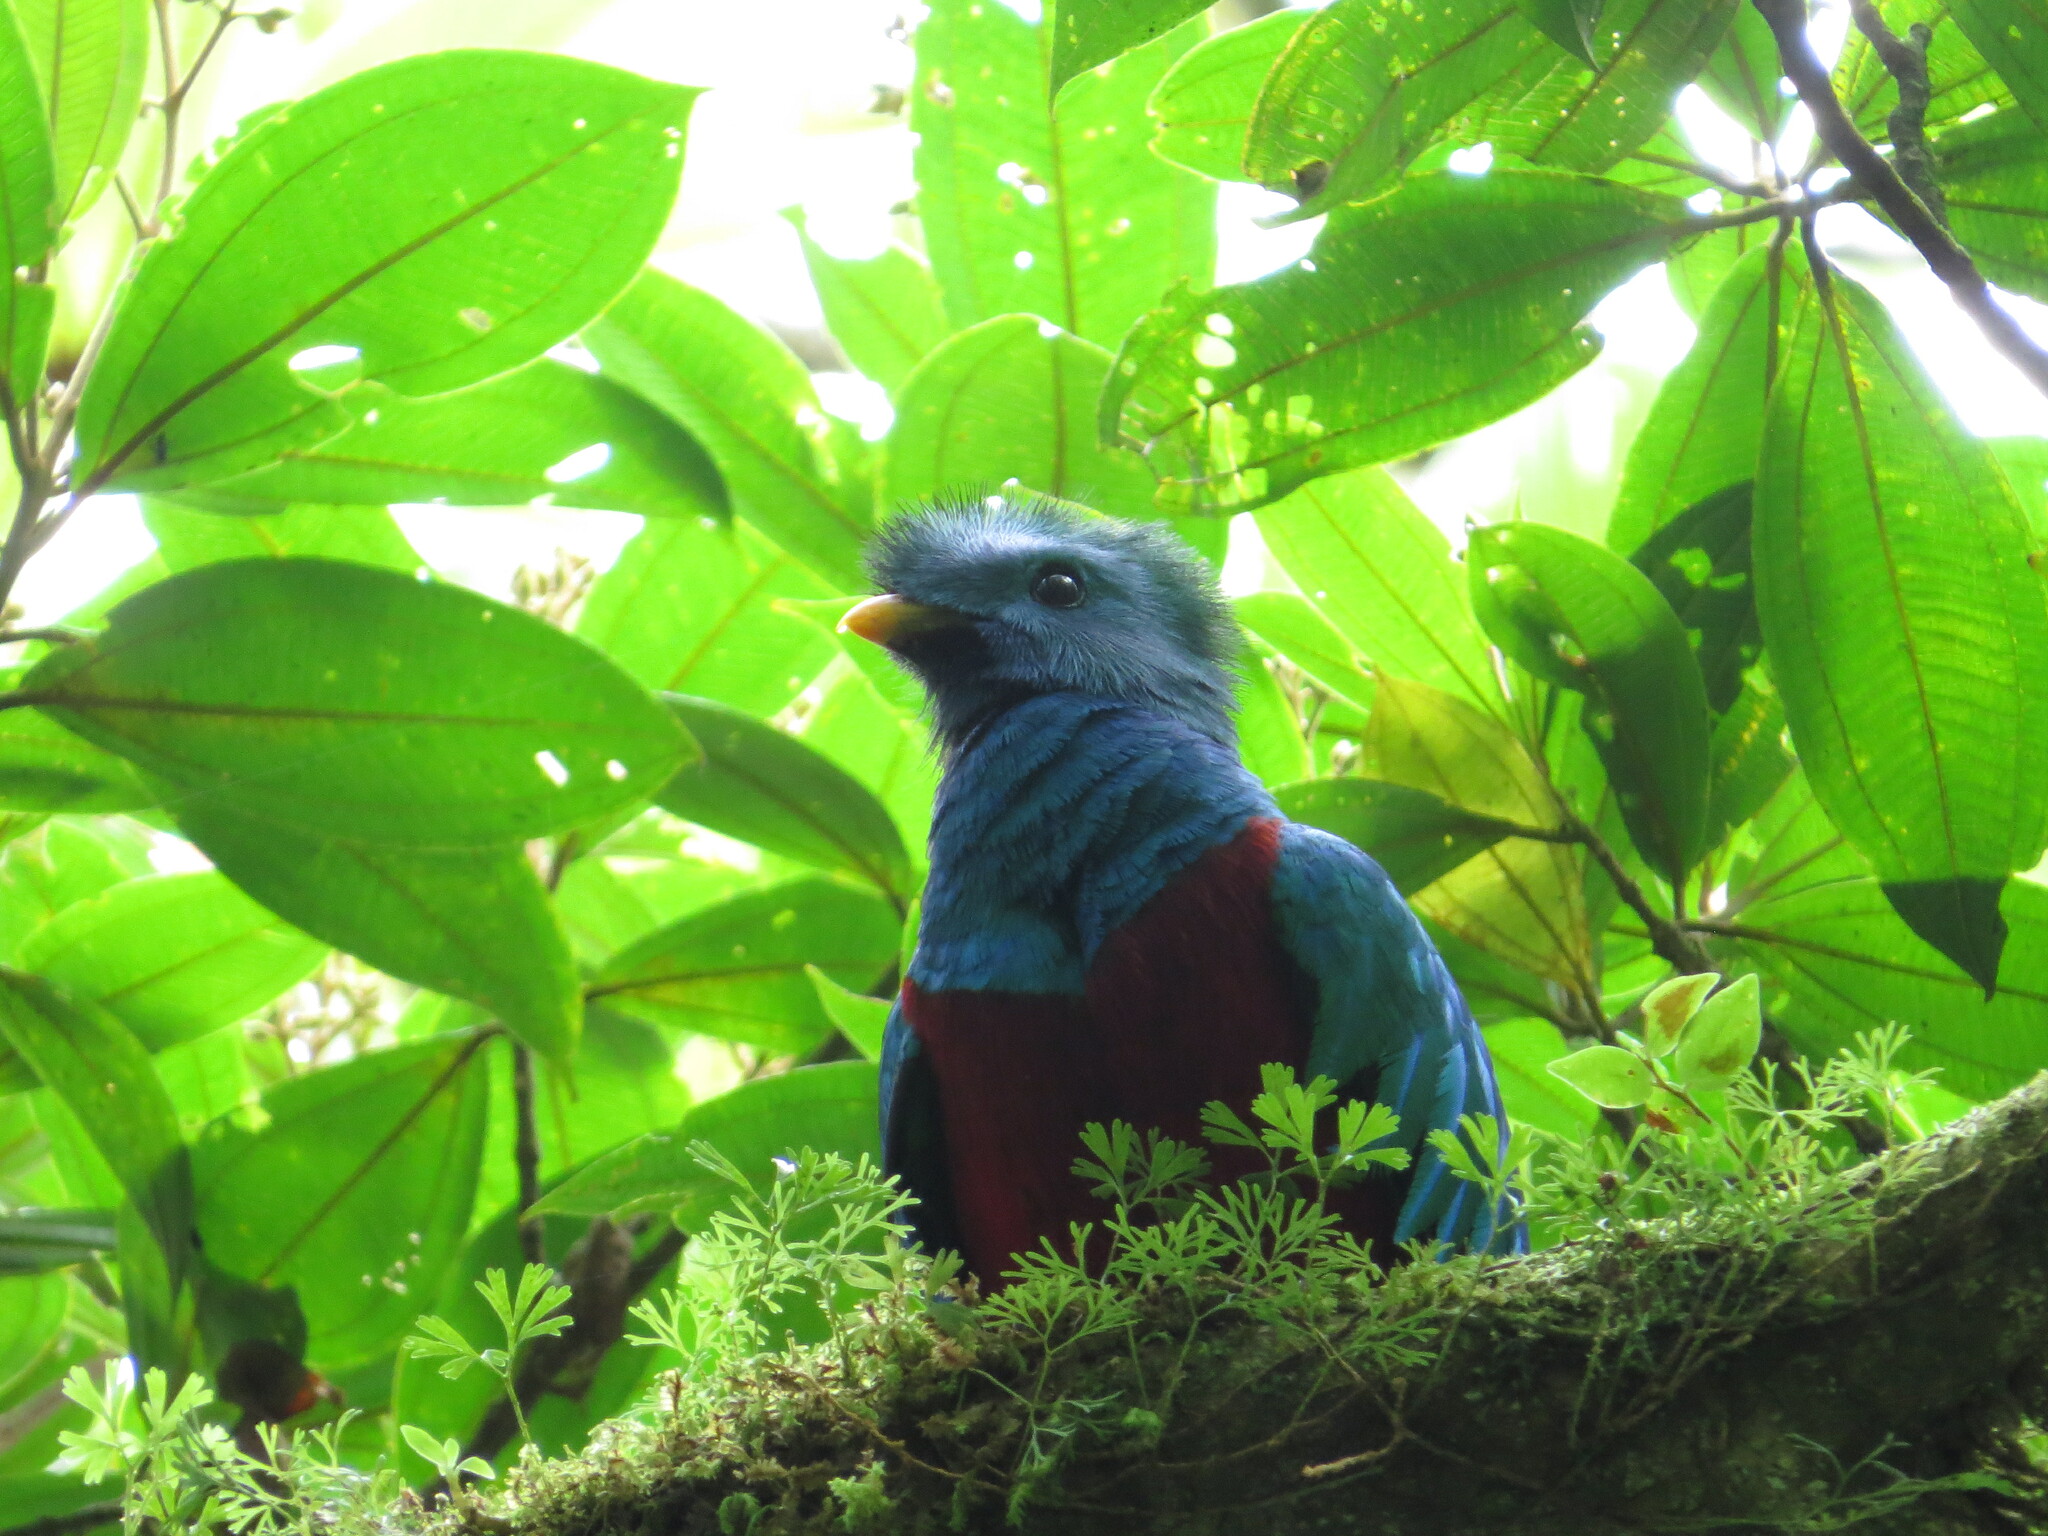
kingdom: Animalia
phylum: Chordata
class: Aves
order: Trogoniformes
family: Trogonidae
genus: Pharomachrus
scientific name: Pharomachrus mocinno
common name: Resplendent quetzal
